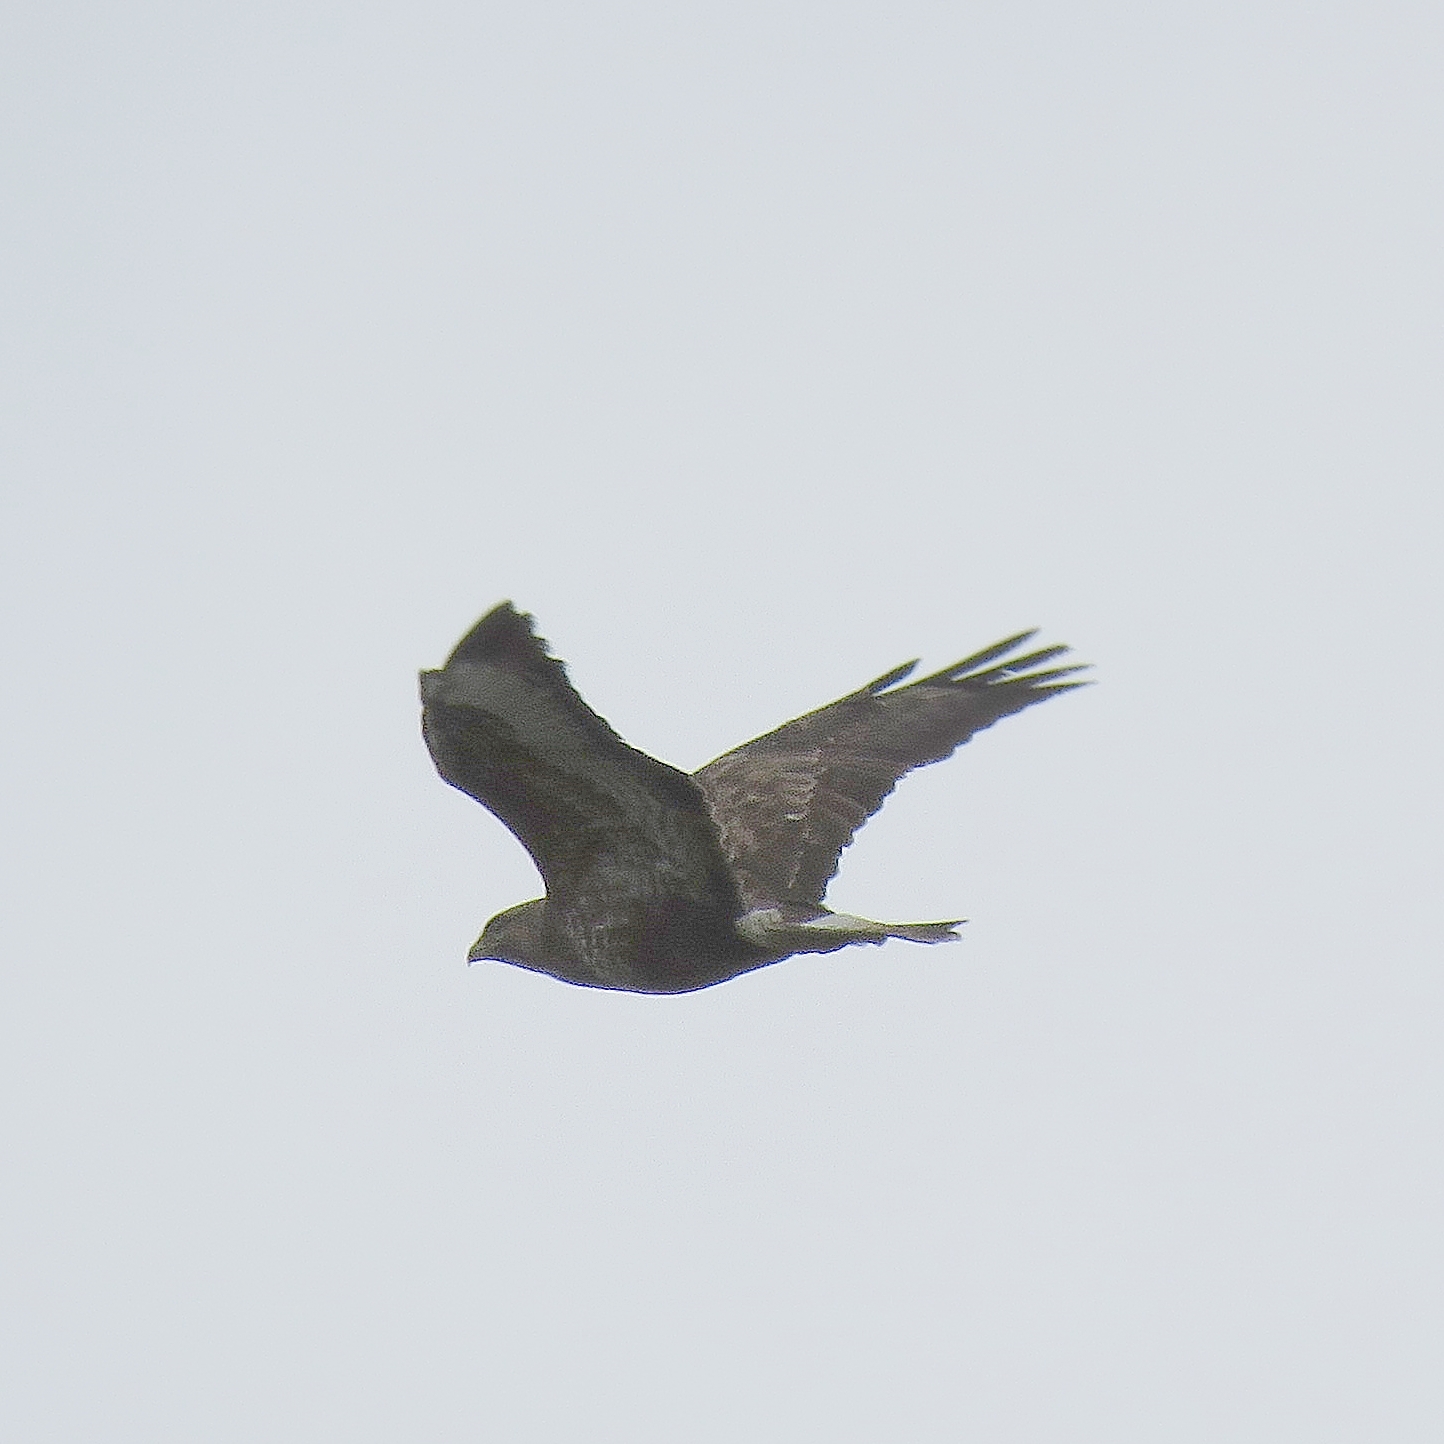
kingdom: Animalia
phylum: Chordata
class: Aves
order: Accipitriformes
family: Accipitridae
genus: Buteo
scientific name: Buteo buteo
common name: Common buzzard
